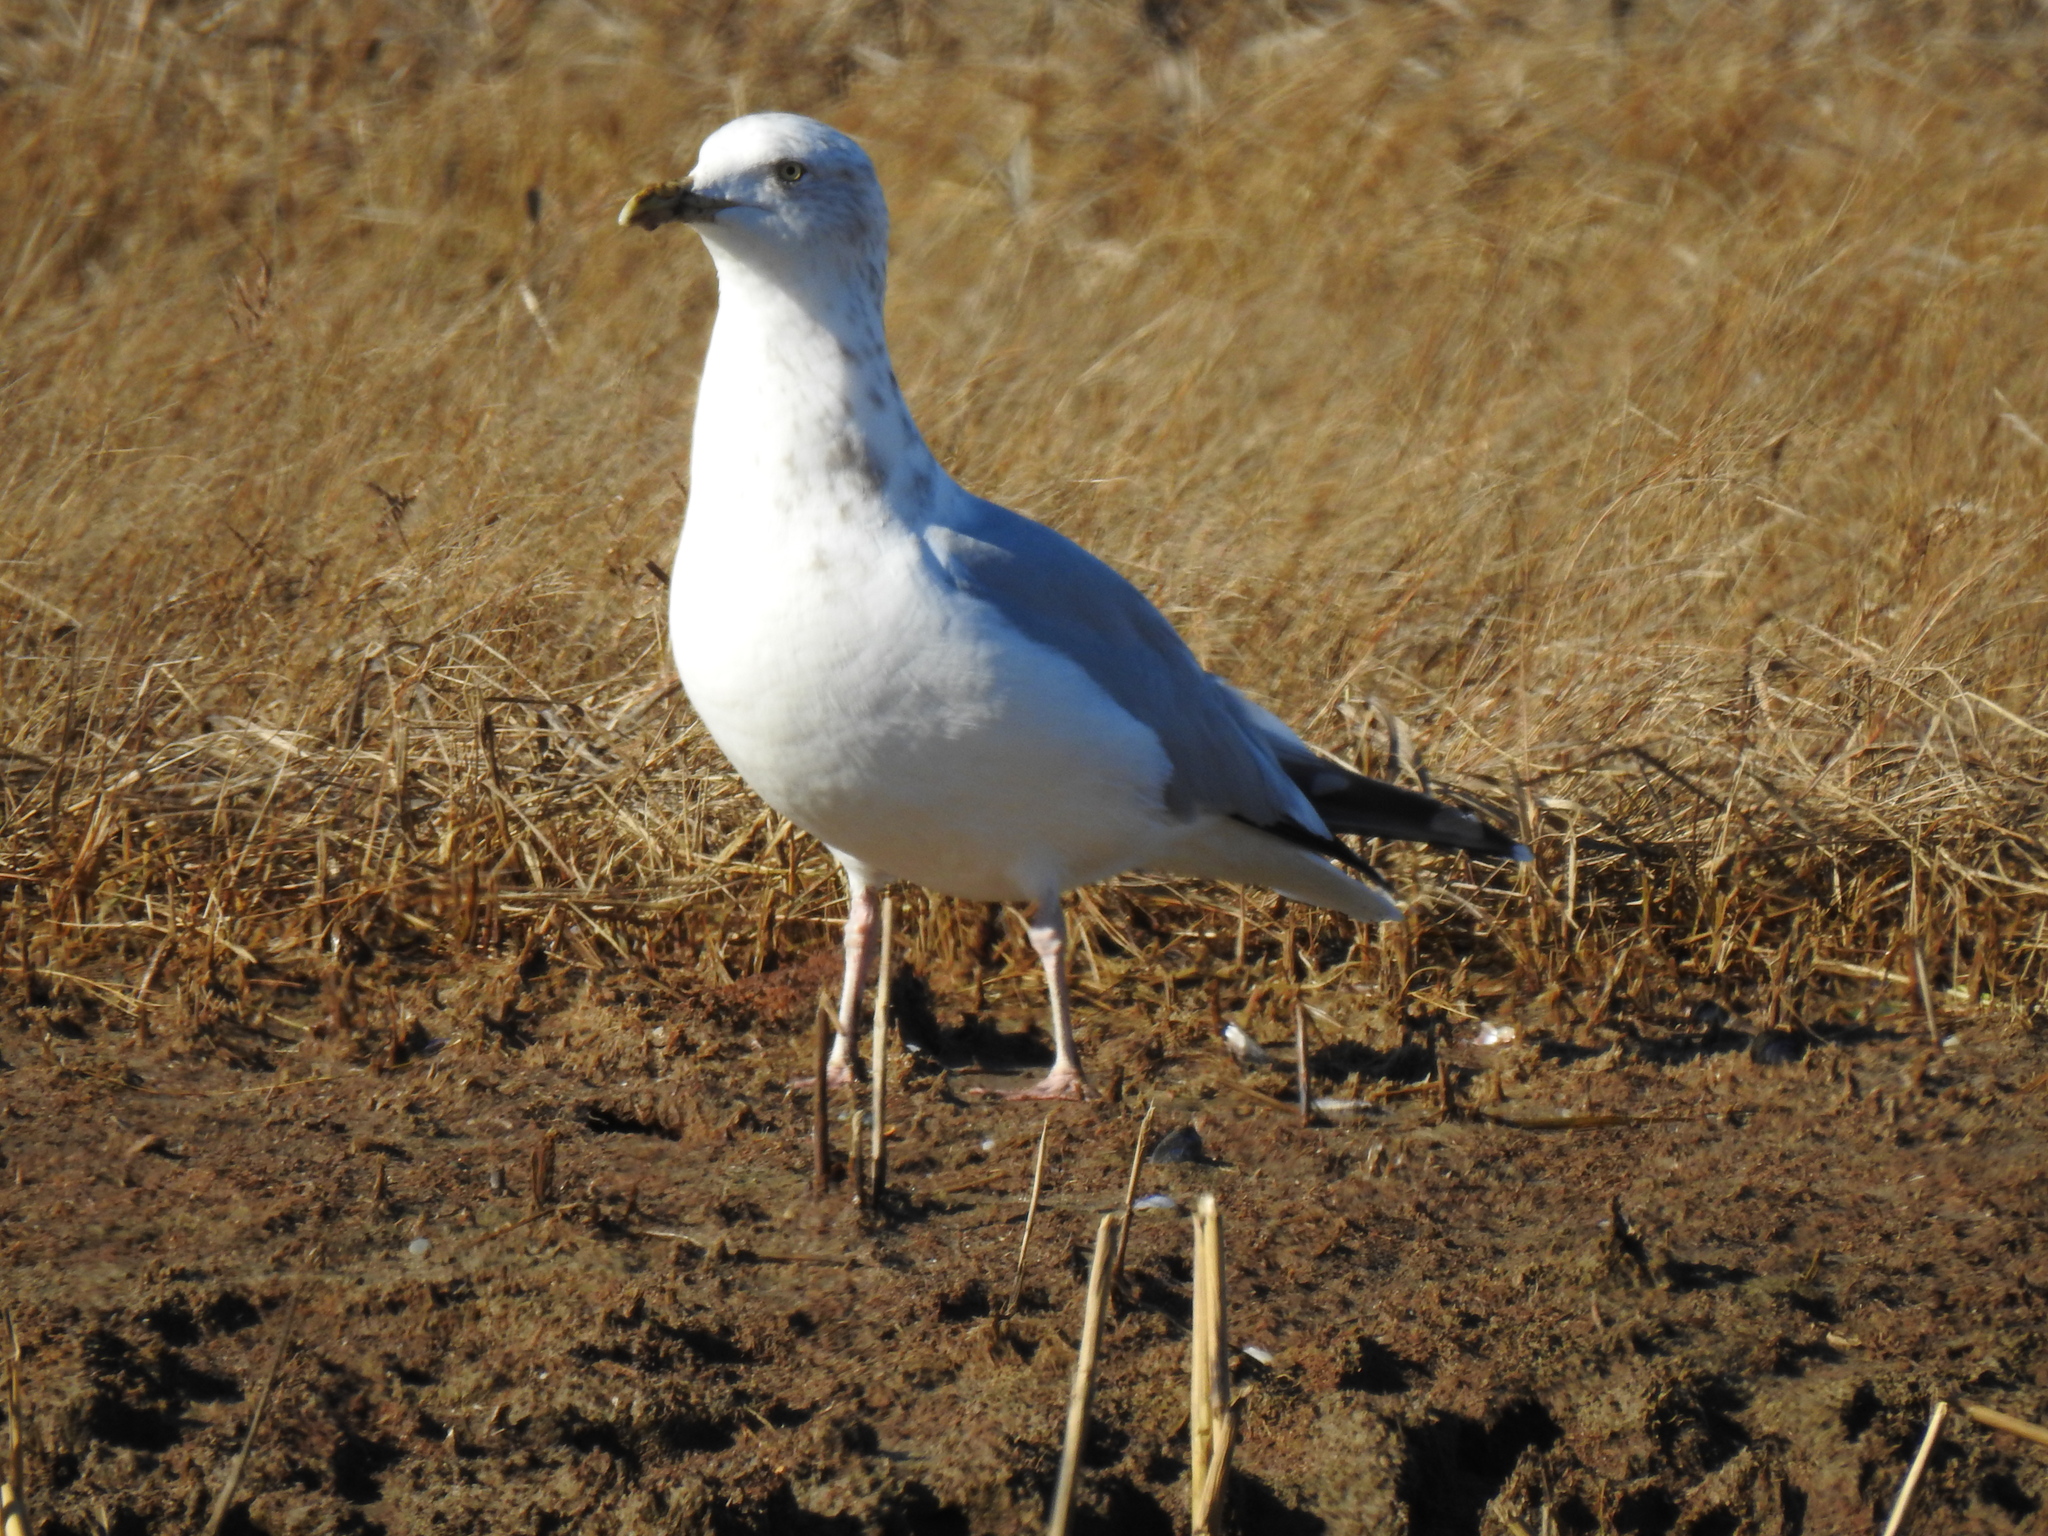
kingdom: Animalia
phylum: Chordata
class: Aves
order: Charadriiformes
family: Laridae
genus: Larus
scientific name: Larus argentatus
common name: Herring gull
